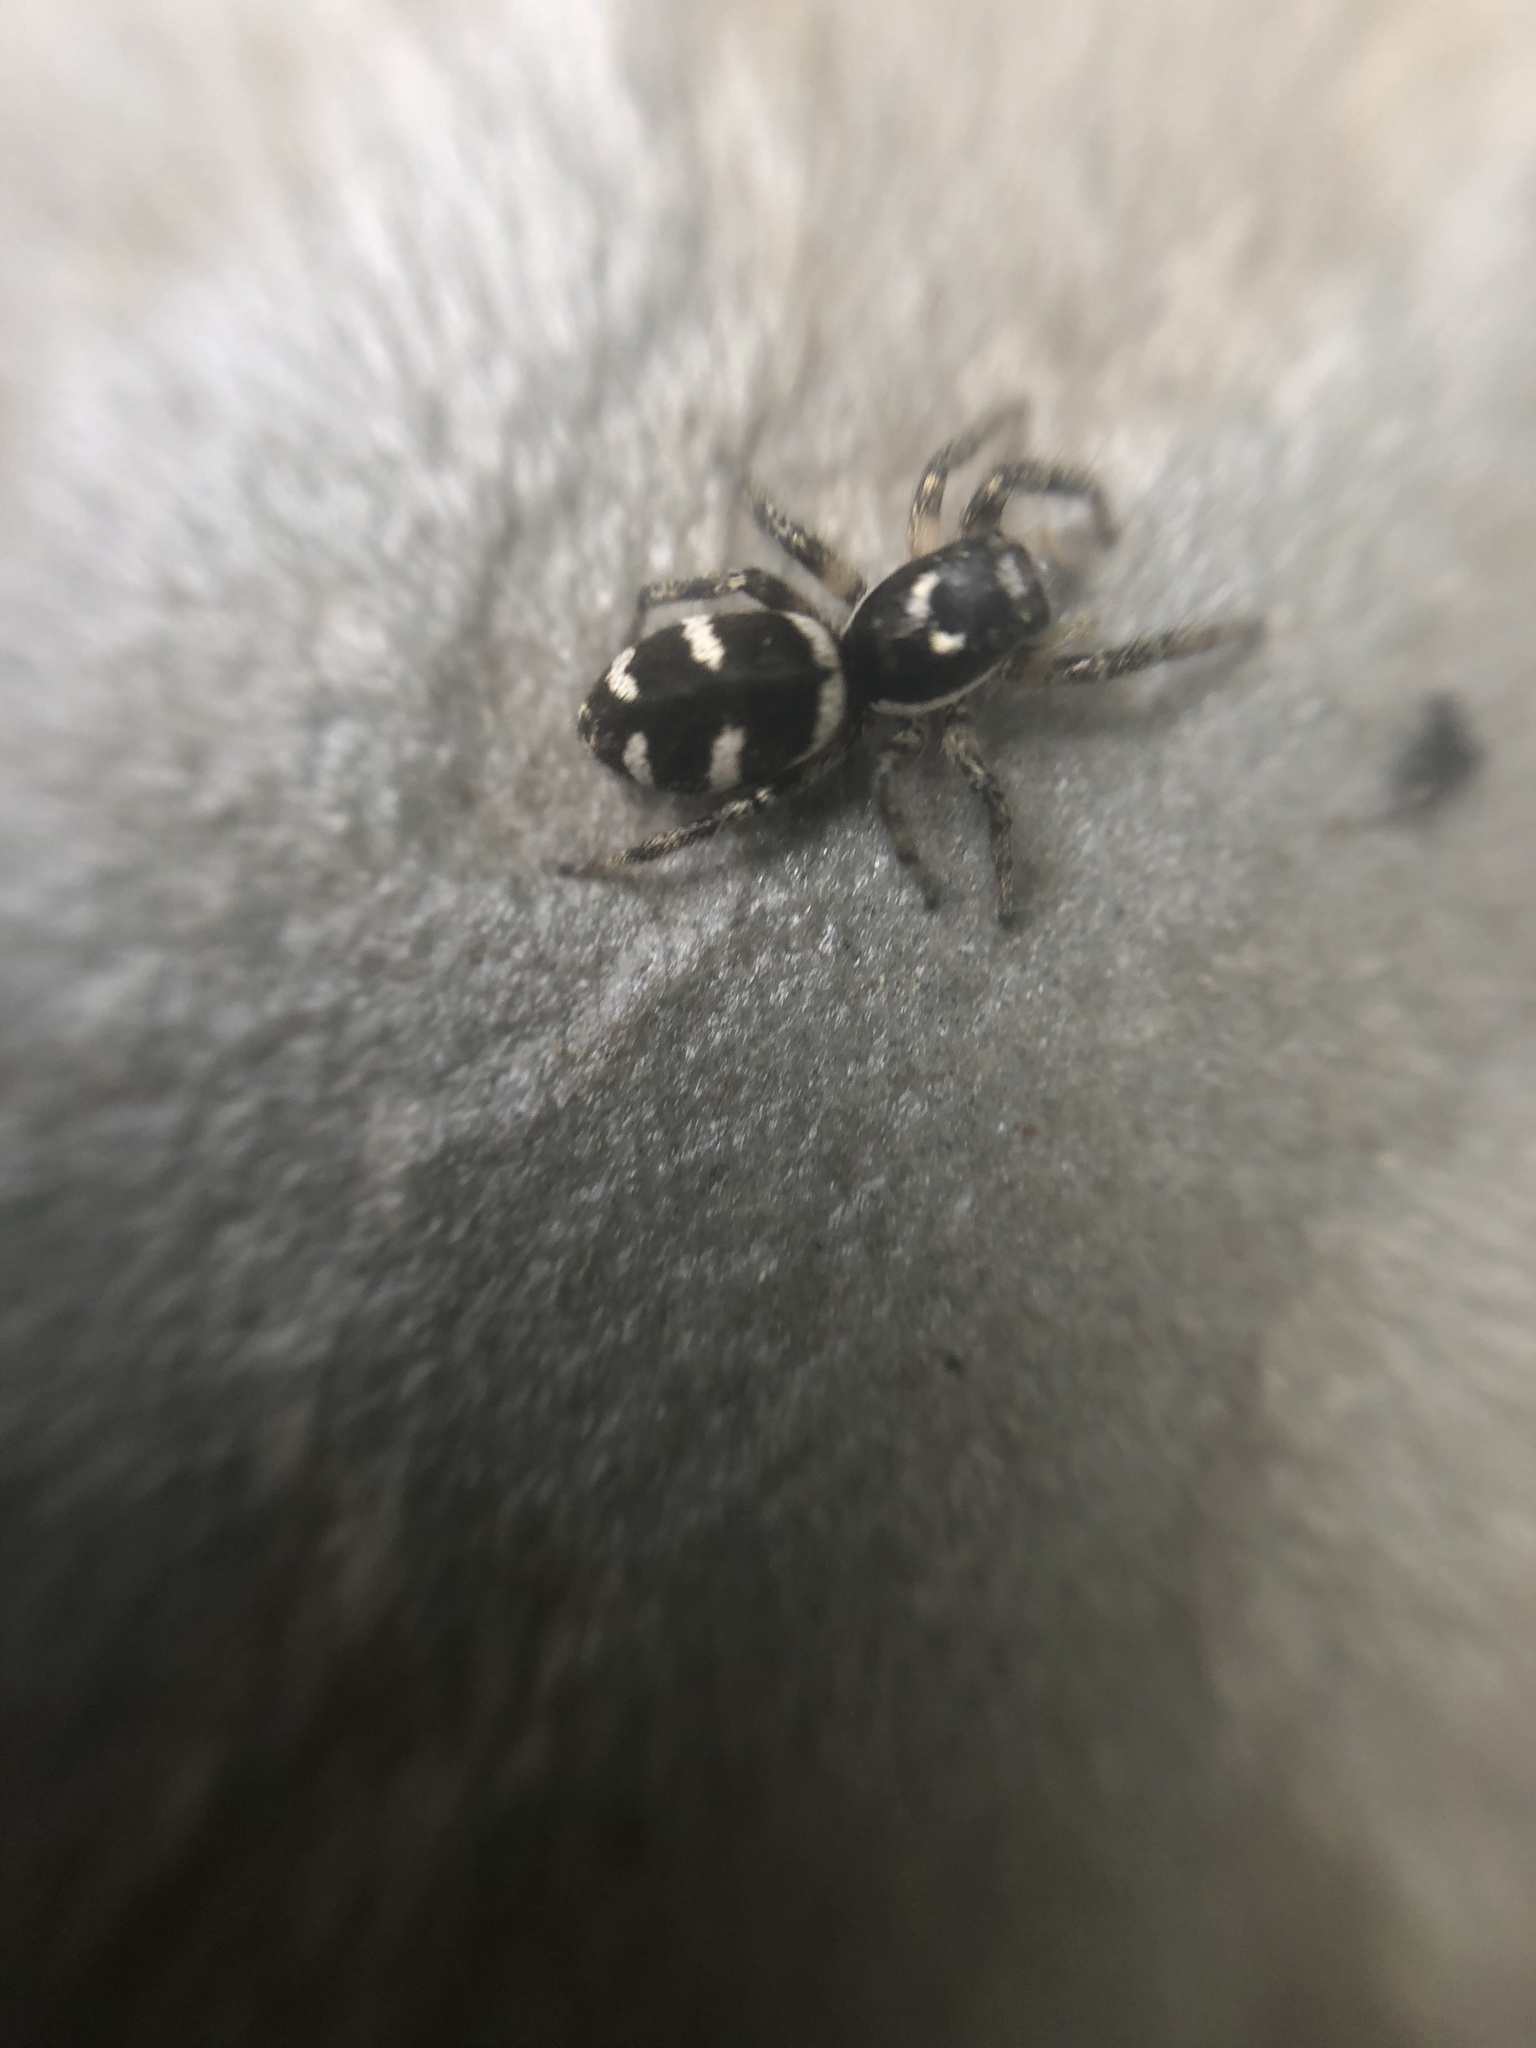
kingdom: Animalia
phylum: Arthropoda
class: Arachnida
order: Araneae
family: Salticidae
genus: Salticus
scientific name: Salticus scenicus
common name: Zebra jumper
